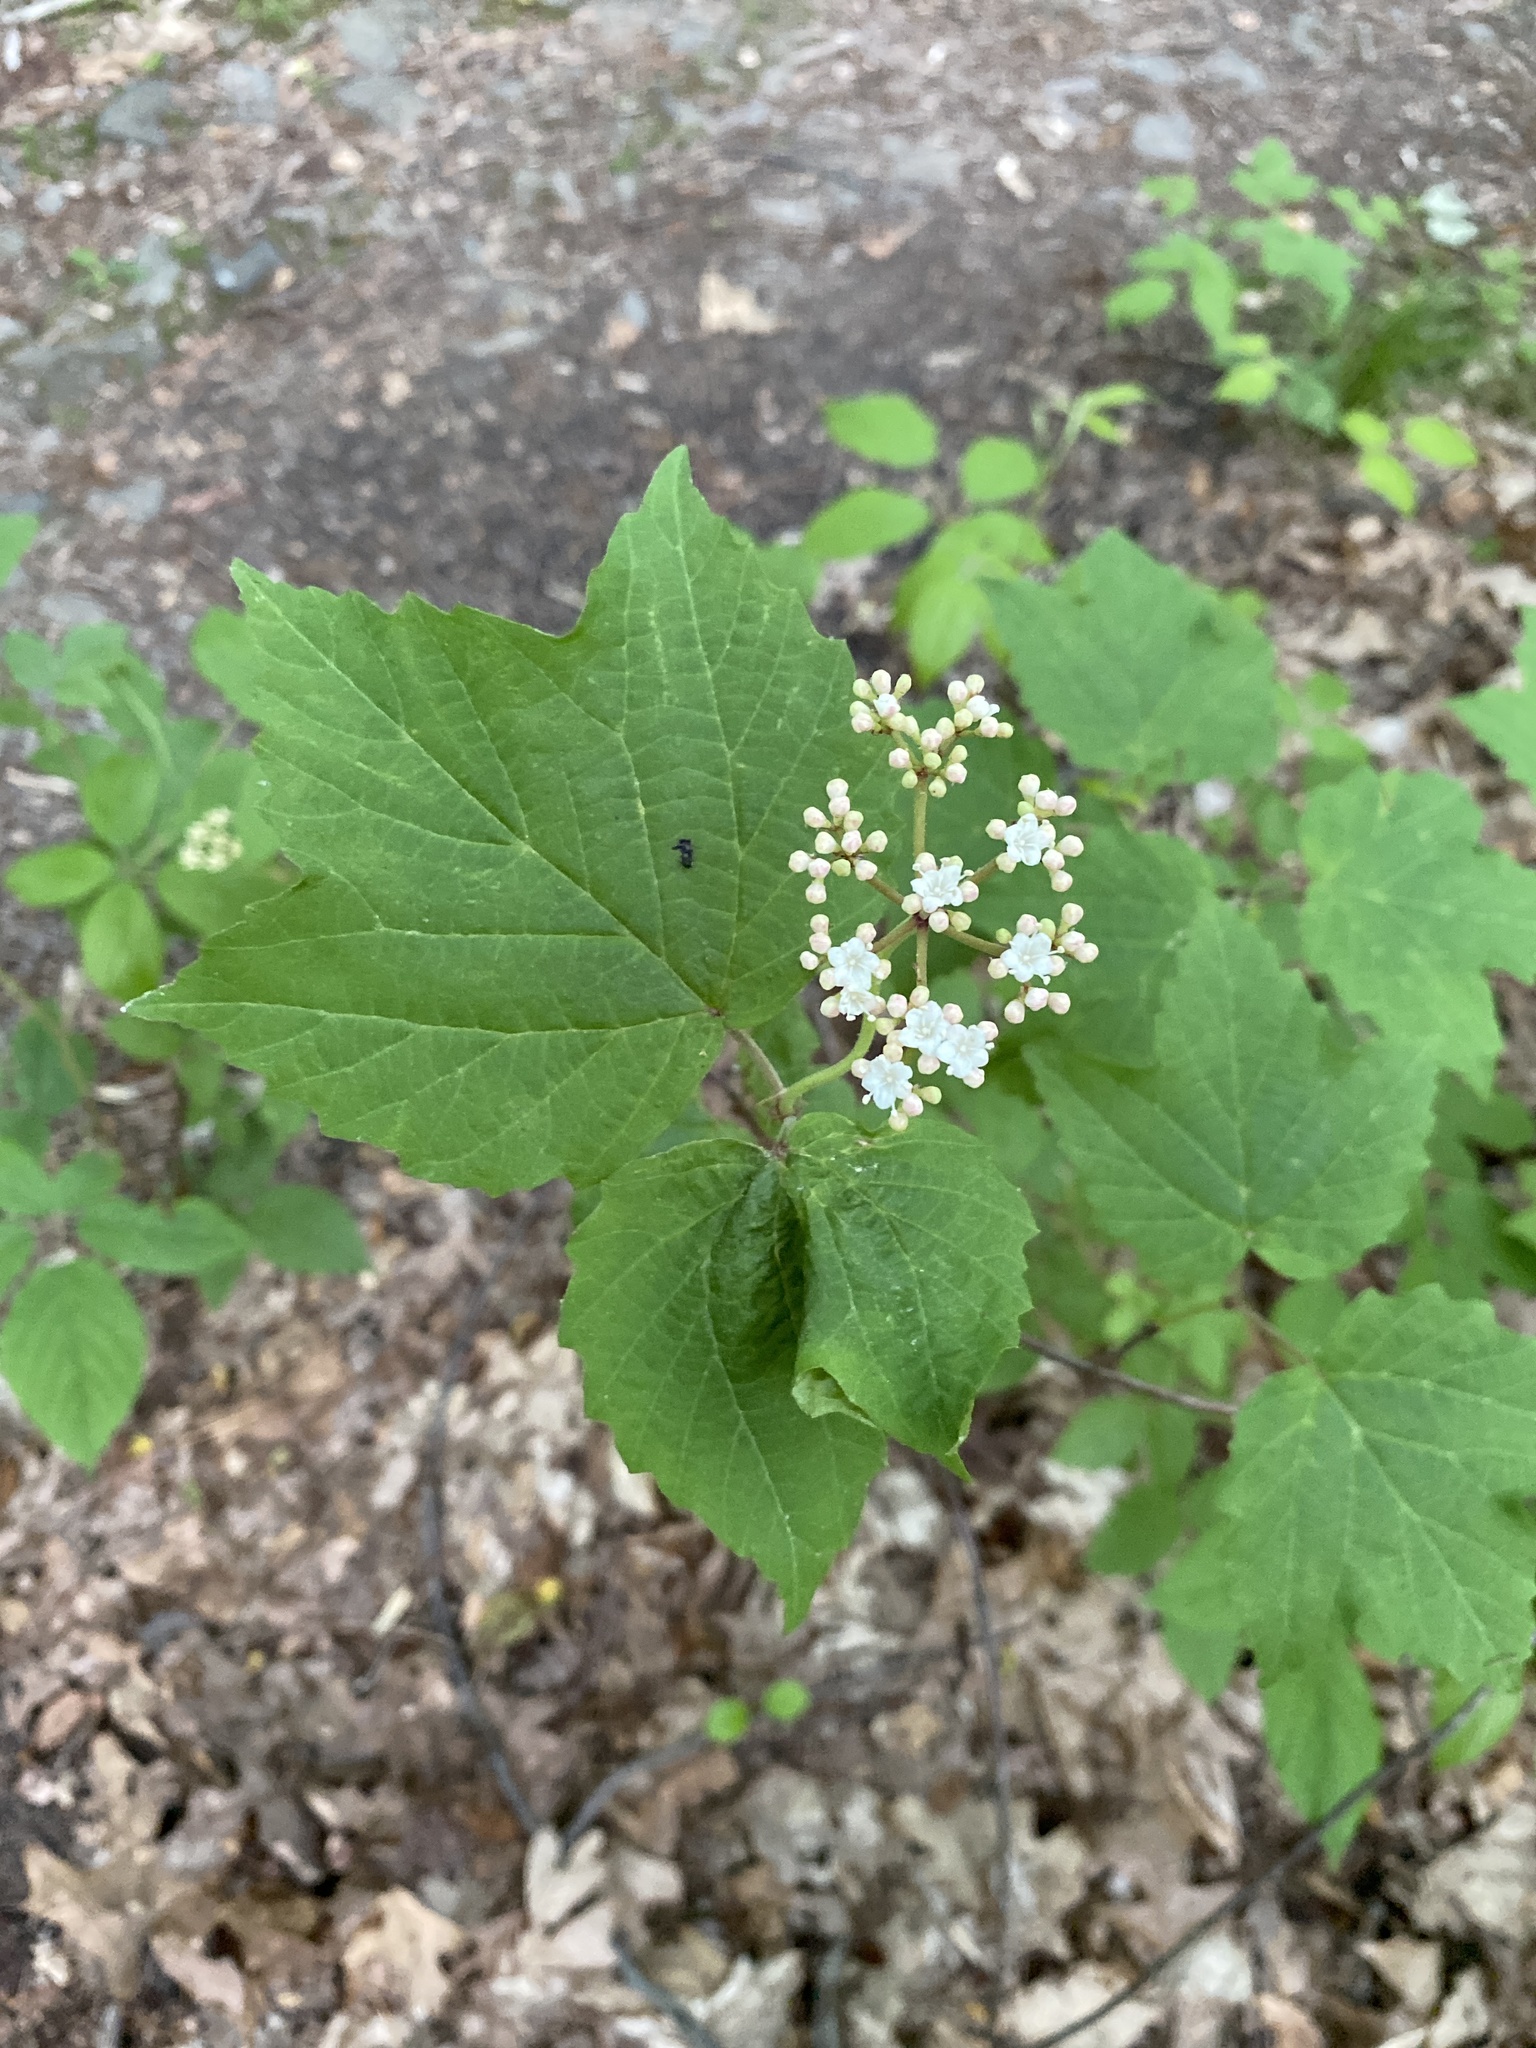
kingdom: Plantae
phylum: Tracheophyta
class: Magnoliopsida
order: Dipsacales
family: Viburnaceae
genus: Viburnum
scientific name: Viburnum acerifolium
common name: Dockmackie
